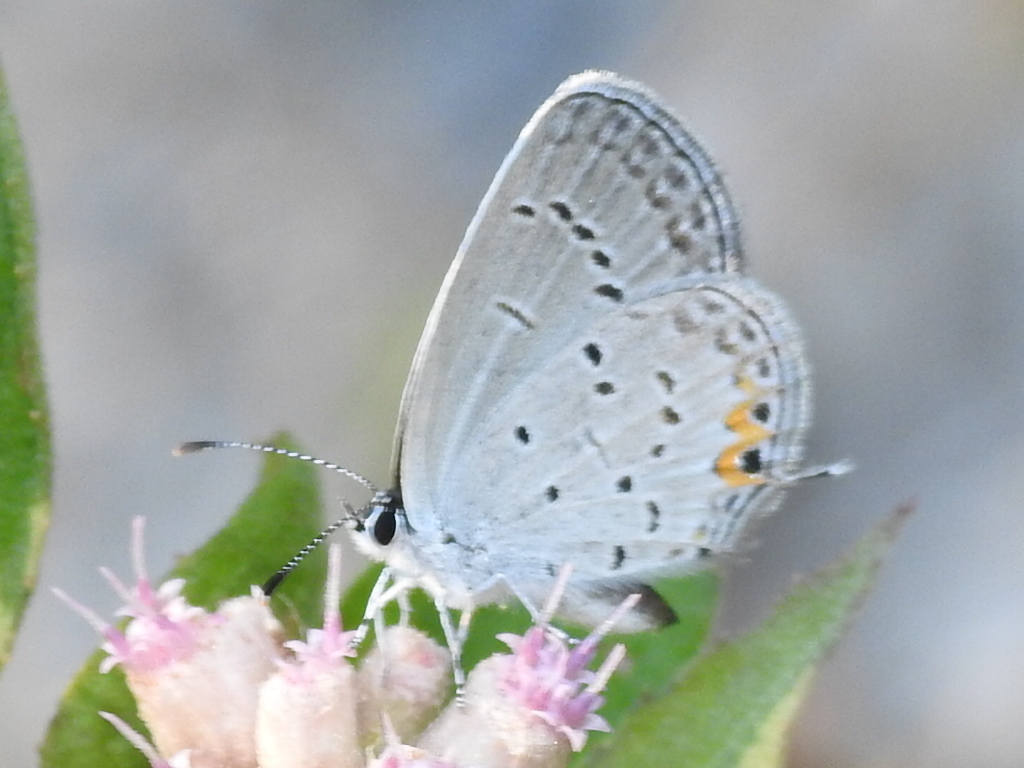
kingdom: Animalia
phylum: Arthropoda
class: Insecta
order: Lepidoptera
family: Lycaenidae
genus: Elkalyce
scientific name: Elkalyce comyntas
